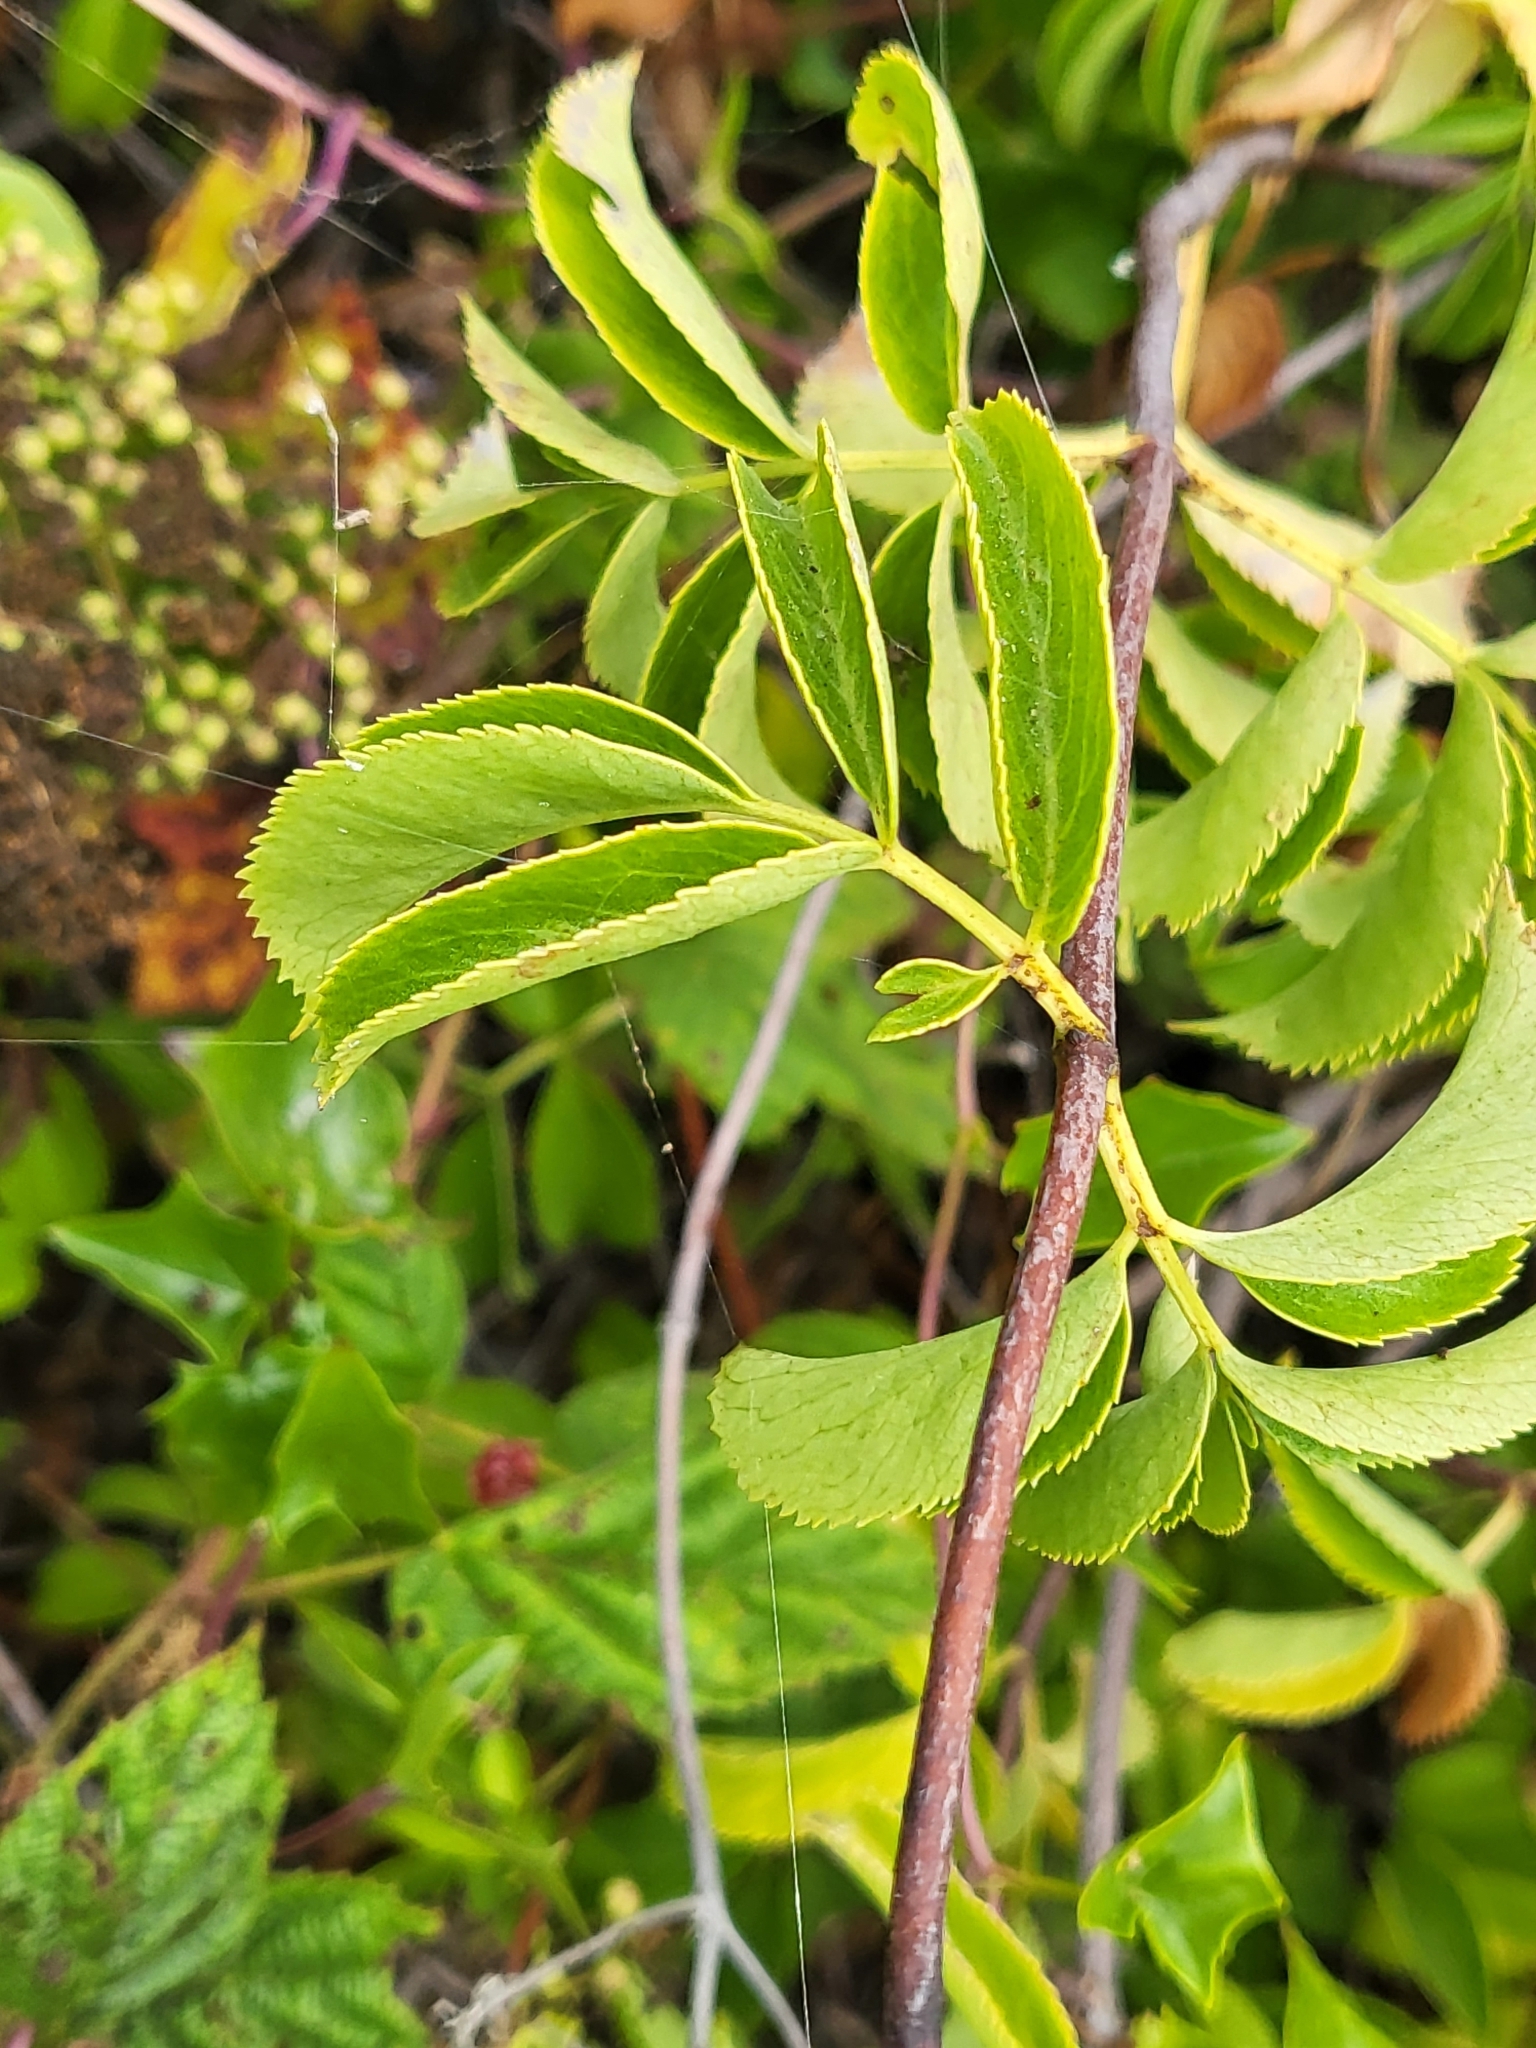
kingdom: Plantae
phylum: Tracheophyta
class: Magnoliopsida
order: Dipsacales
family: Viburnaceae
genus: Sambucus
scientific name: Sambucus cerulea
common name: Blue elder
